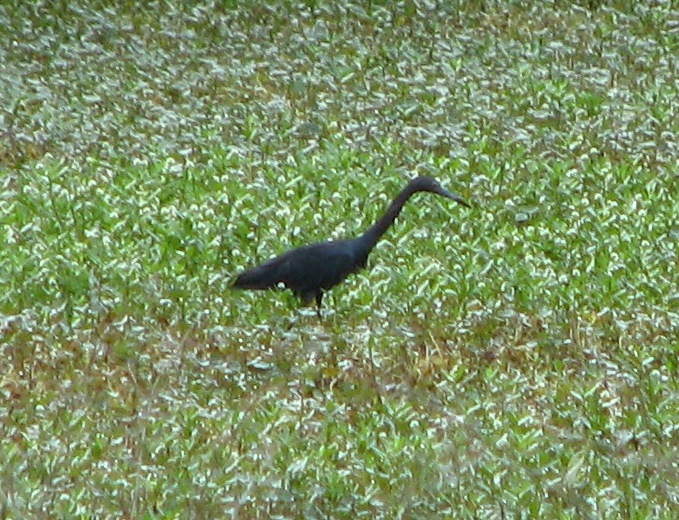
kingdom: Animalia
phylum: Chordata
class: Aves
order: Pelecaniformes
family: Ardeidae
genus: Egretta
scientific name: Egretta caerulea
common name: Little blue heron
